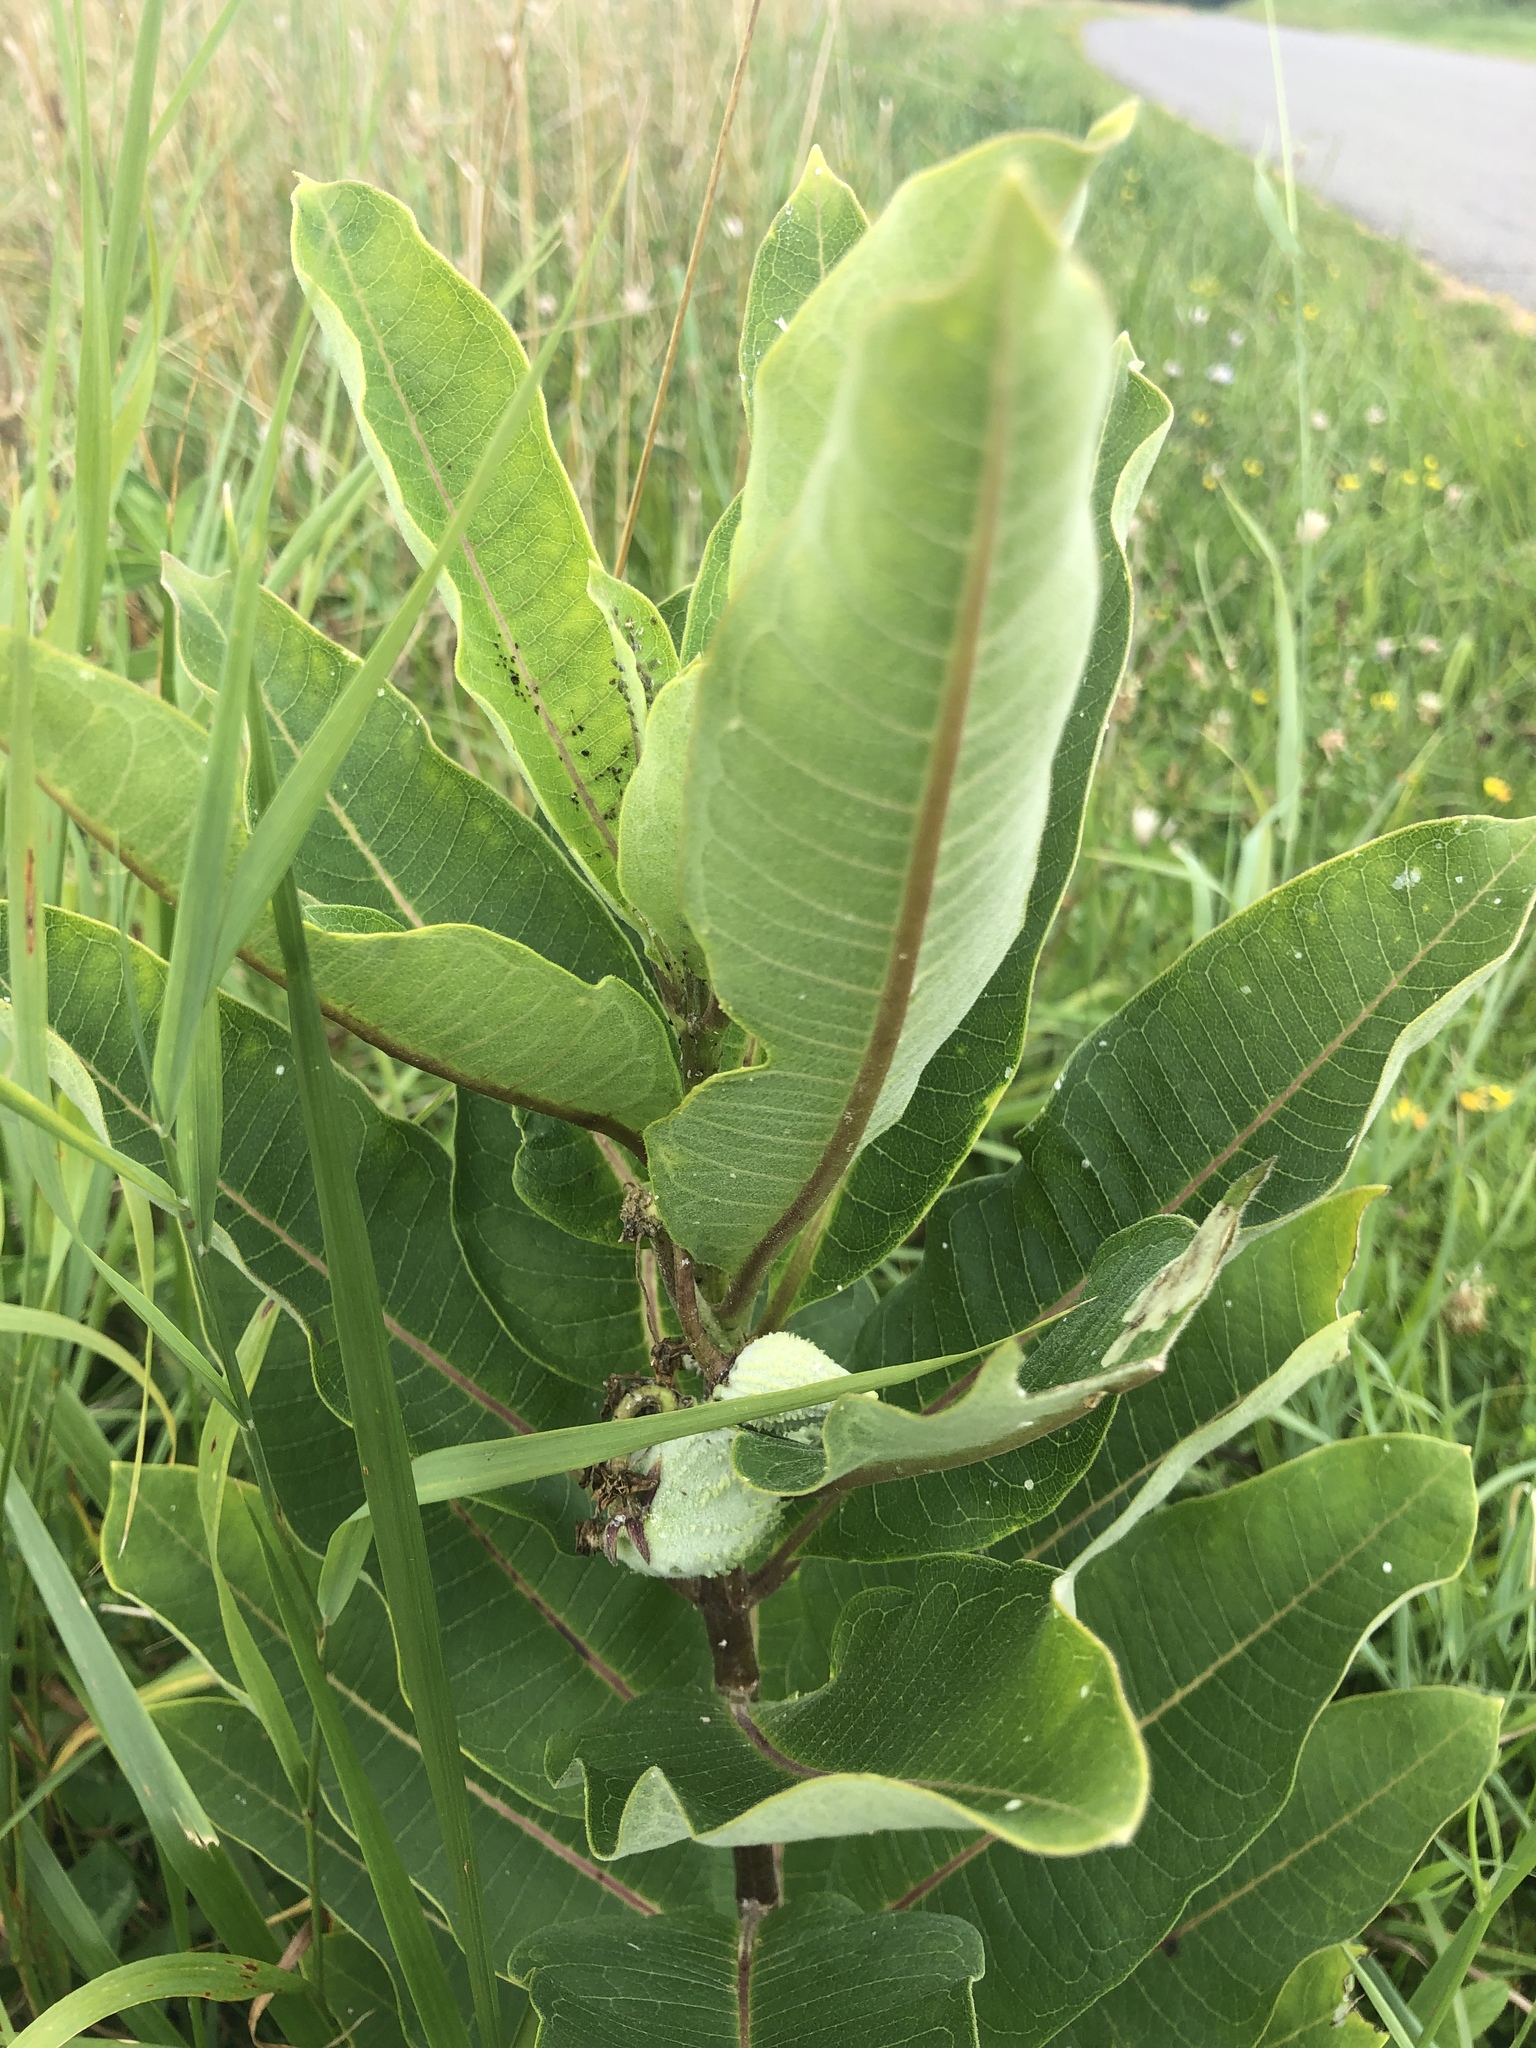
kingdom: Plantae
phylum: Tracheophyta
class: Magnoliopsida
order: Gentianales
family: Apocynaceae
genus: Asclepias
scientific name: Asclepias syriaca
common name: Common milkweed
